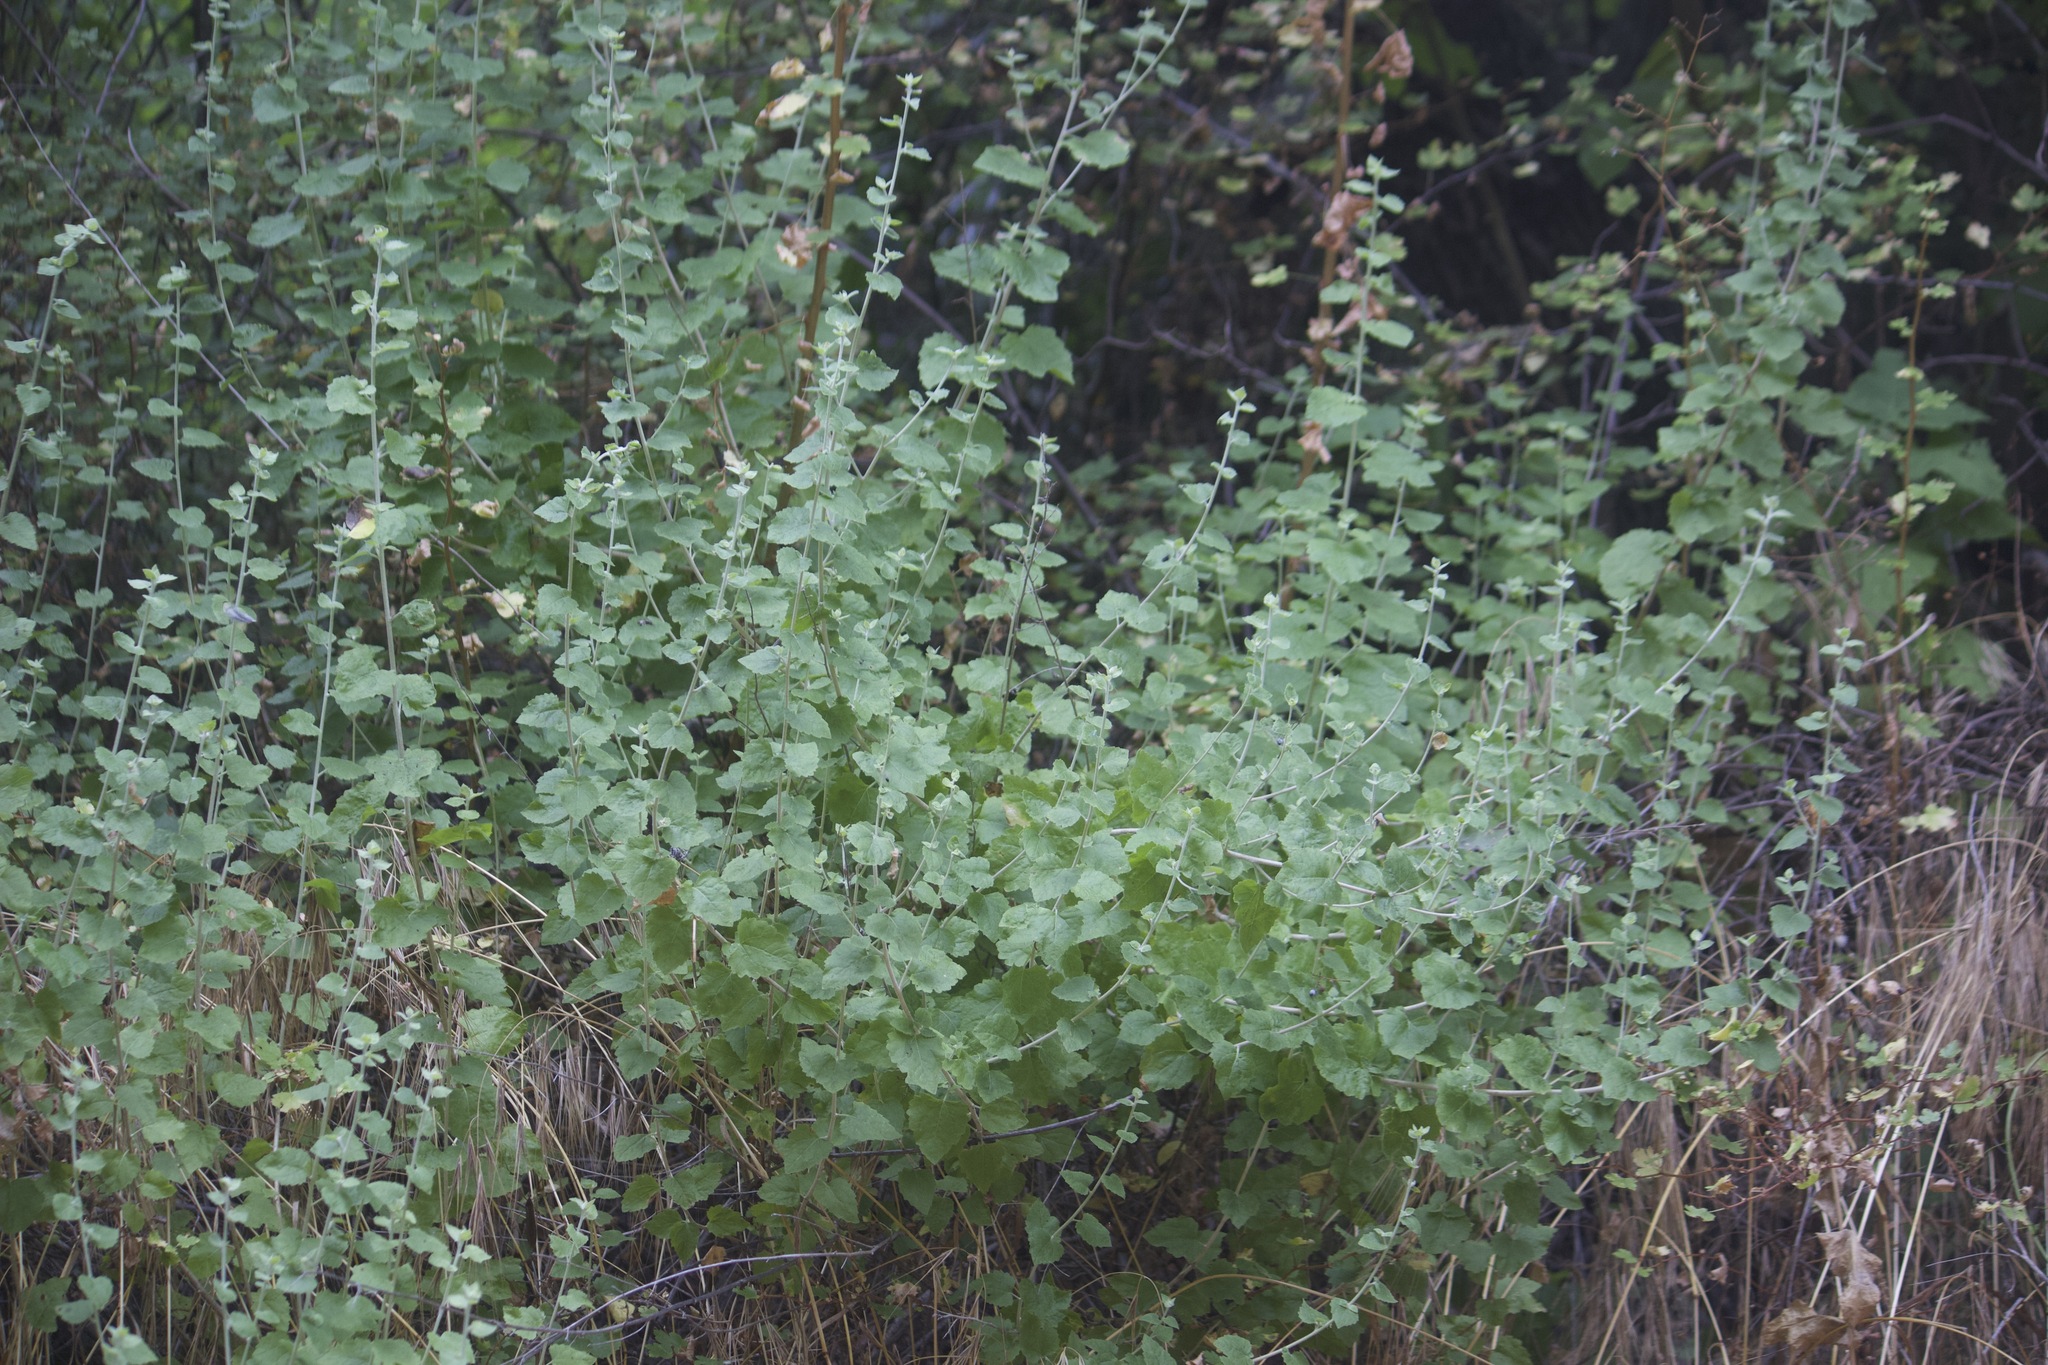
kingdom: Plantae
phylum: Tracheophyta
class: Magnoliopsida
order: Asterales
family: Asteraceae
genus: Brickellia
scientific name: Brickellia californica
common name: California brickellbush
